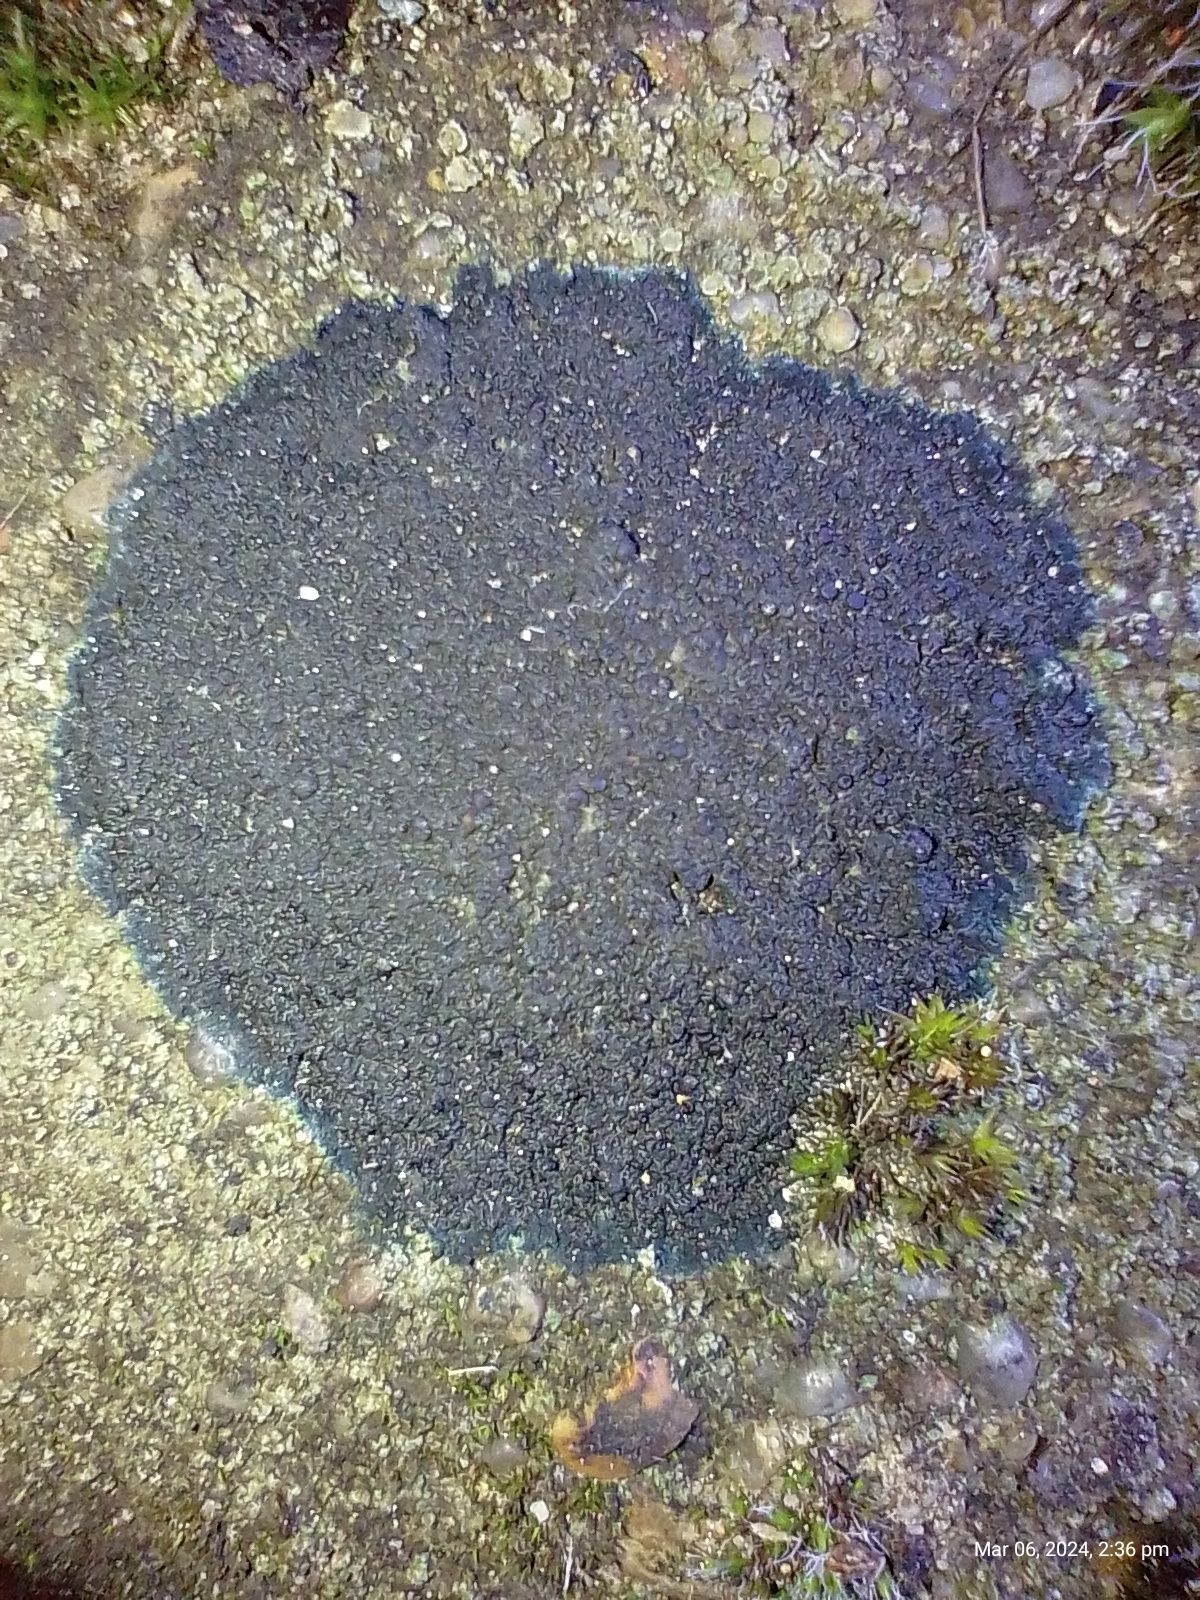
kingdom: Fungi
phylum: Ascomycota
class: Lecanoromycetes
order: Peltigerales
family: Placynthiaceae
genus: Placynthium
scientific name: Placynthium nigrum
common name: Blackthread lichen
